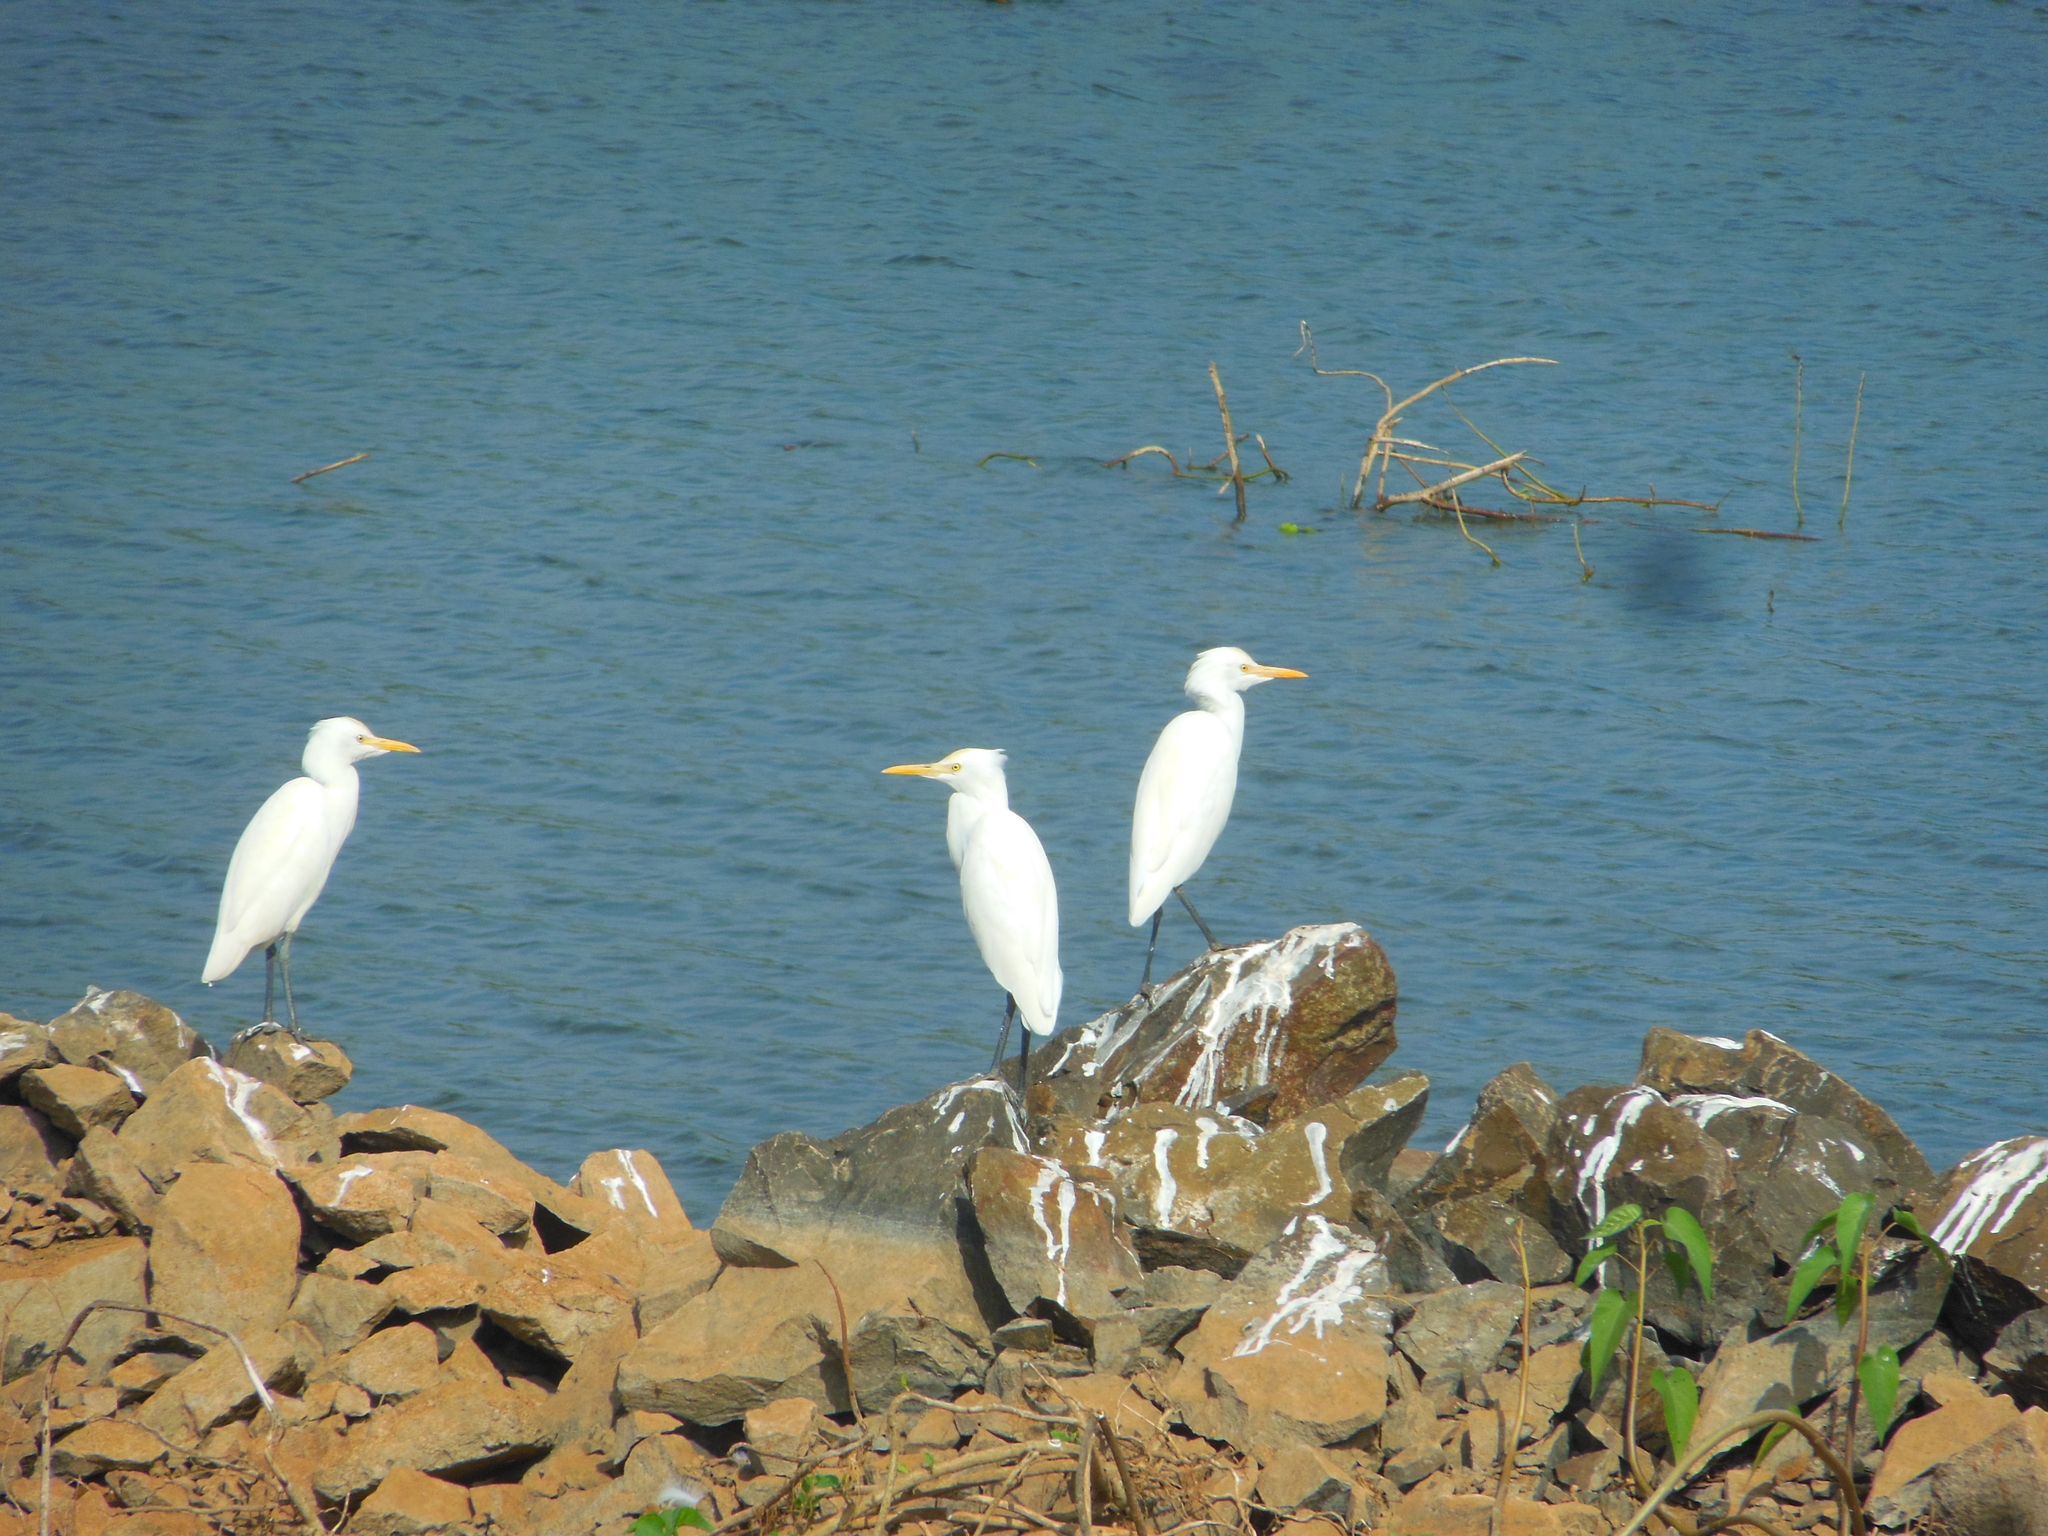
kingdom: Animalia
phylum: Chordata
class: Aves
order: Pelecaniformes
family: Ardeidae
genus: Bubulcus
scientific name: Bubulcus coromandus
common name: Eastern cattle egret
